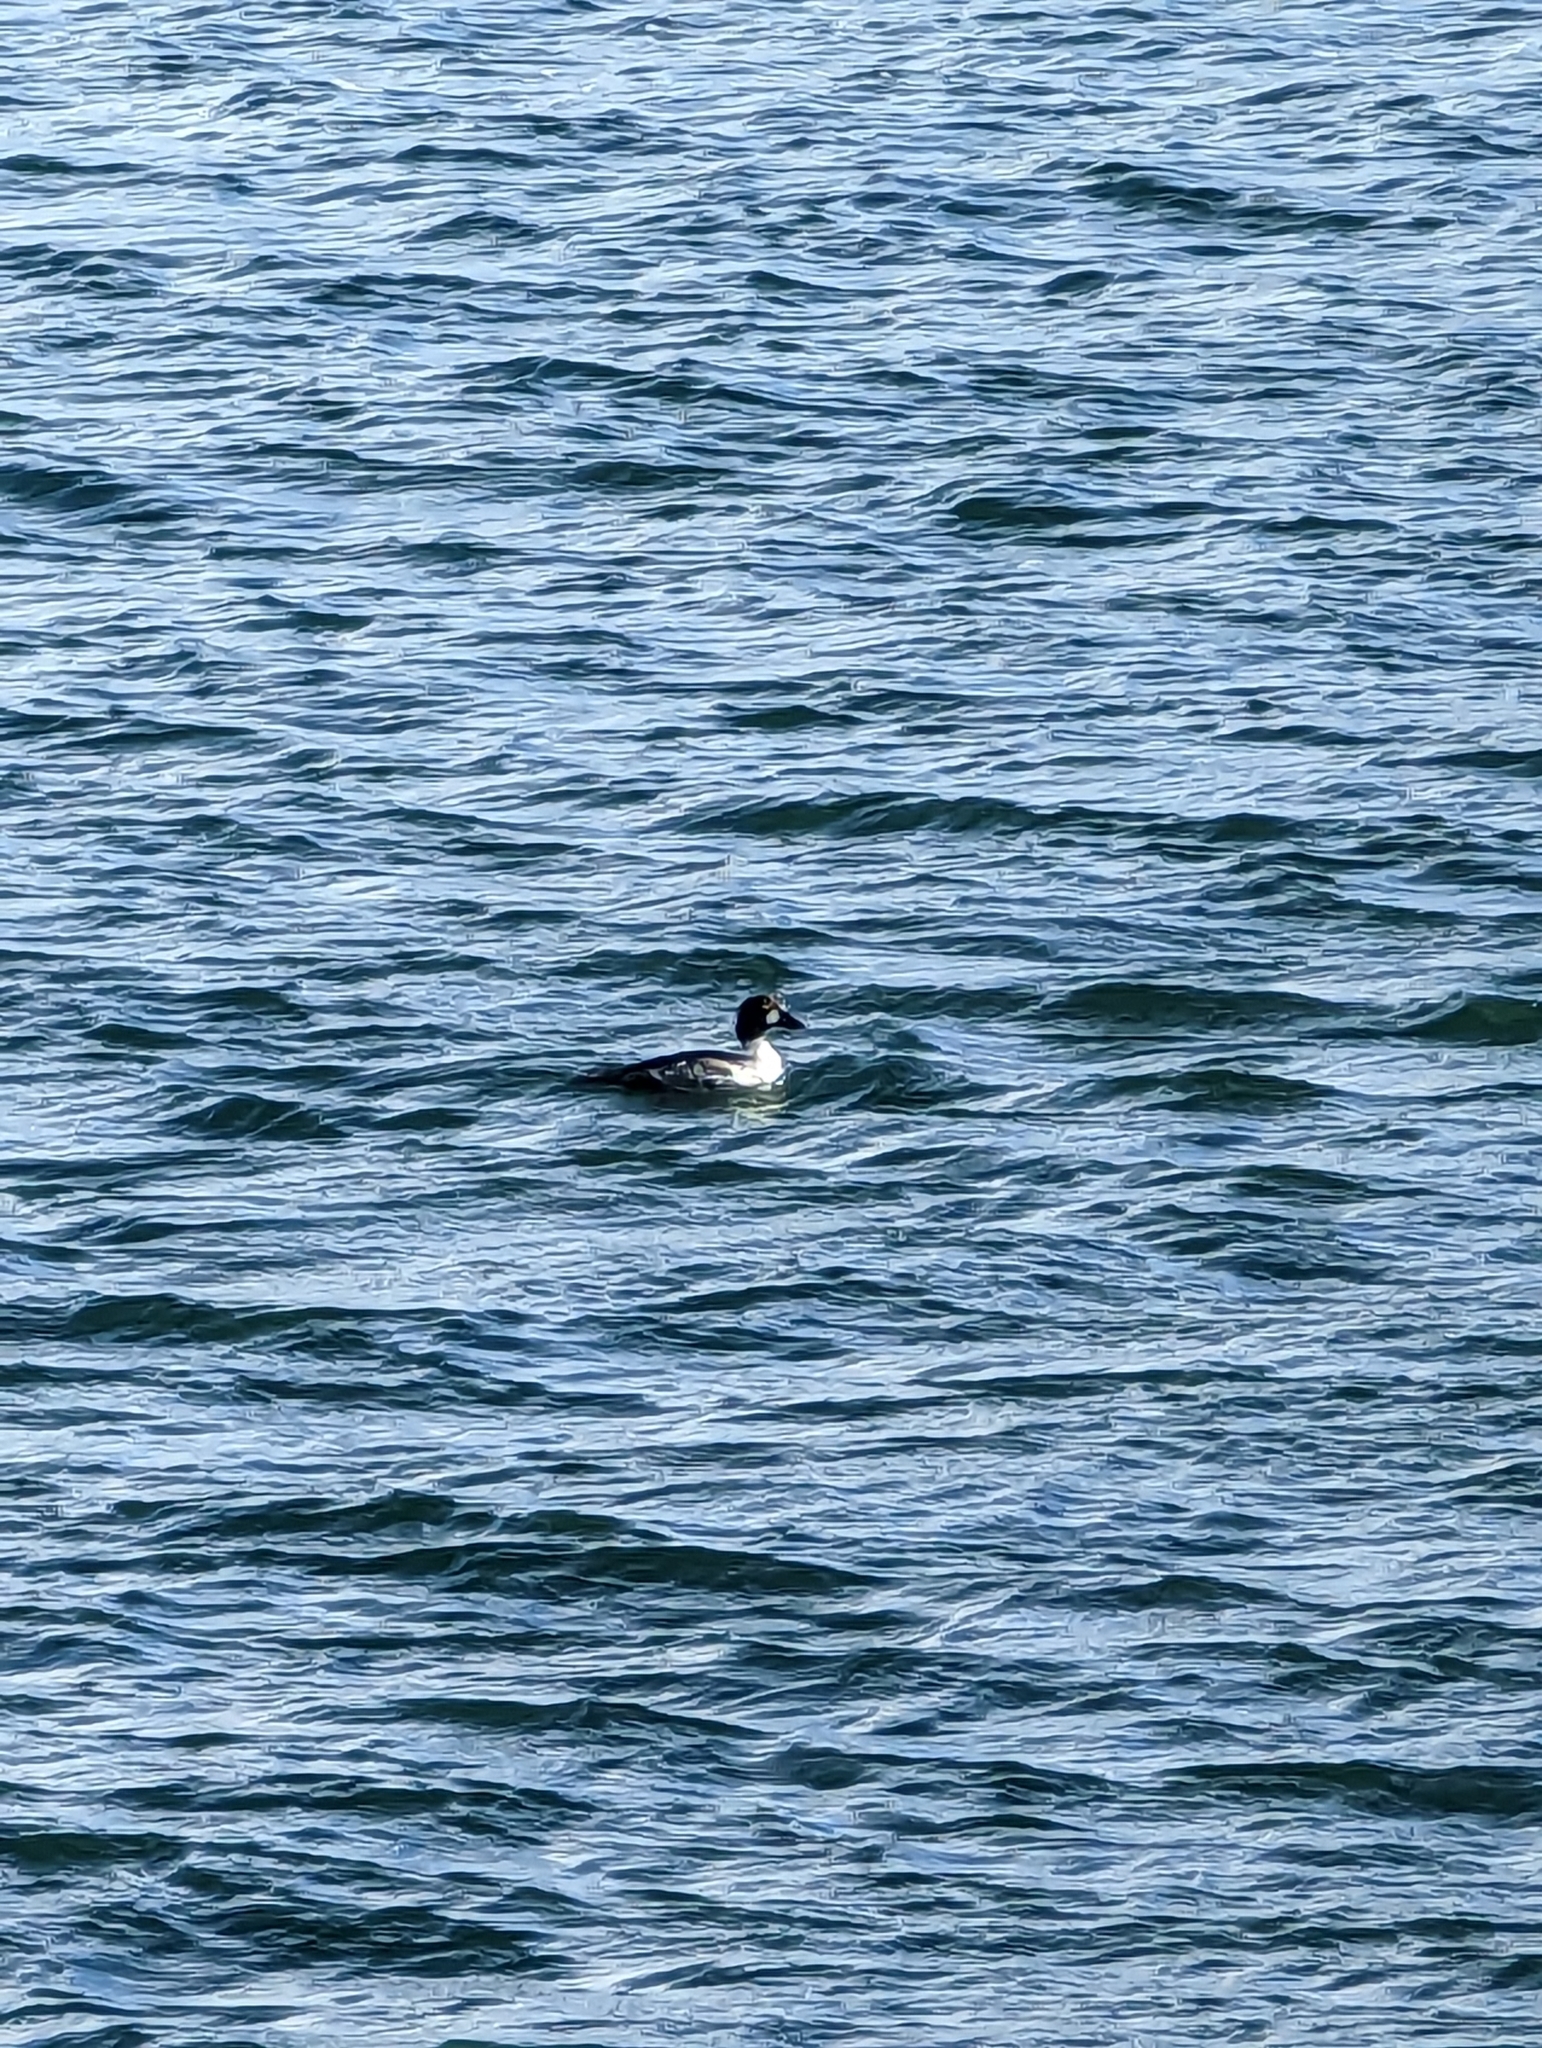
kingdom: Animalia
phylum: Chordata
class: Aves
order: Anseriformes
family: Anatidae
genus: Bucephala
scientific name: Bucephala clangula
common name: Common goldeneye
